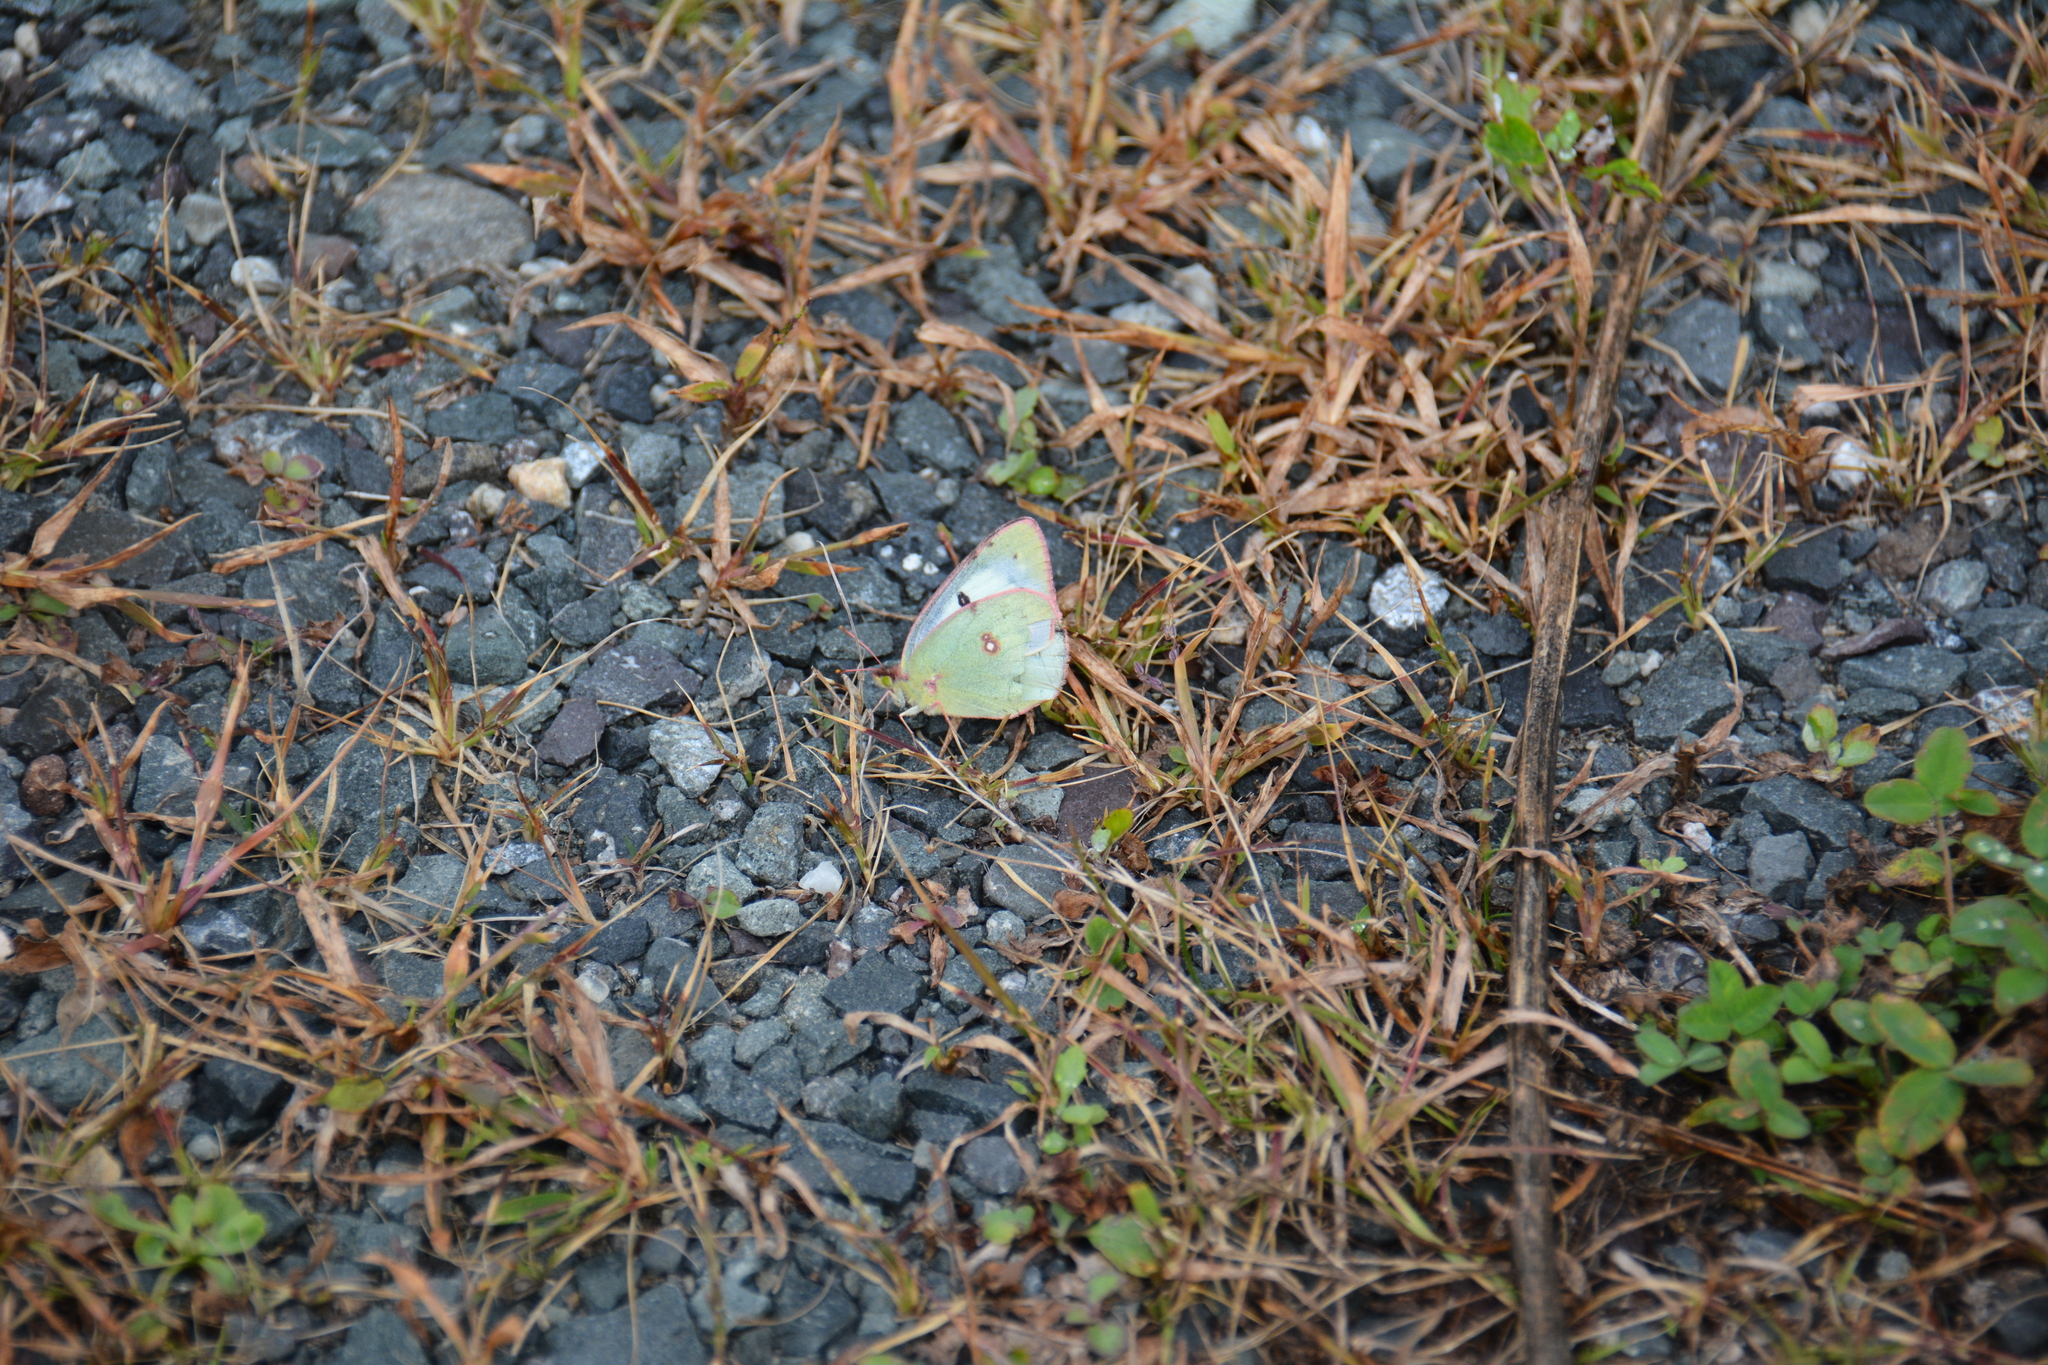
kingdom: Animalia
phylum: Arthropoda
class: Insecta
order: Lepidoptera
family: Pieridae
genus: Colias
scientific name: Colias philodice
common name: Clouded sulphur
